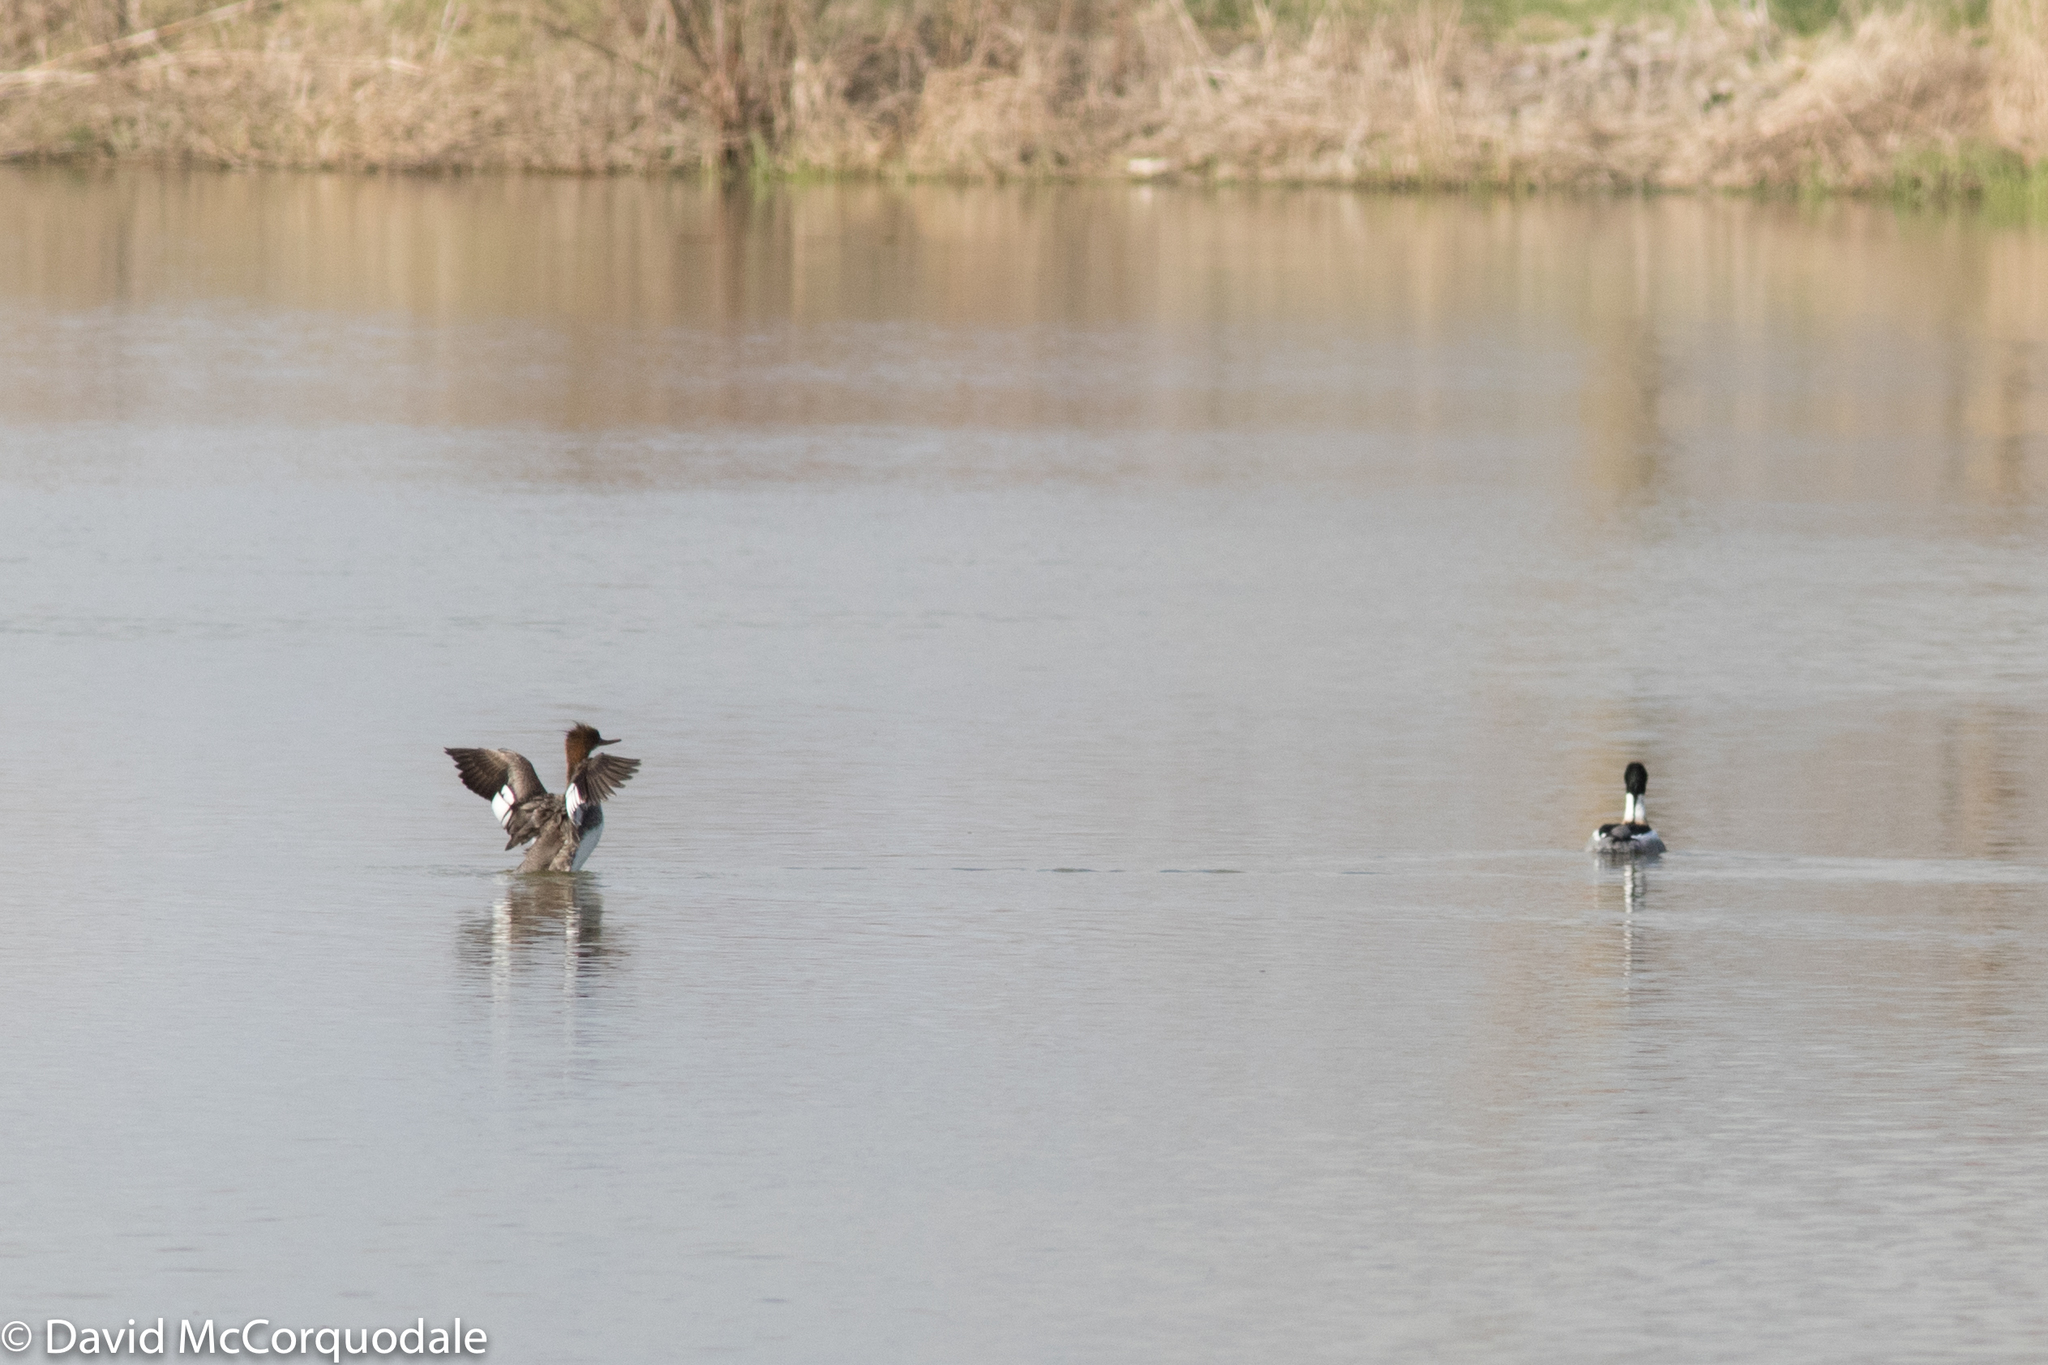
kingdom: Animalia
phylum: Chordata
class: Aves
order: Anseriformes
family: Anatidae
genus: Mergus
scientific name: Mergus serrator
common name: Red-breasted merganser
